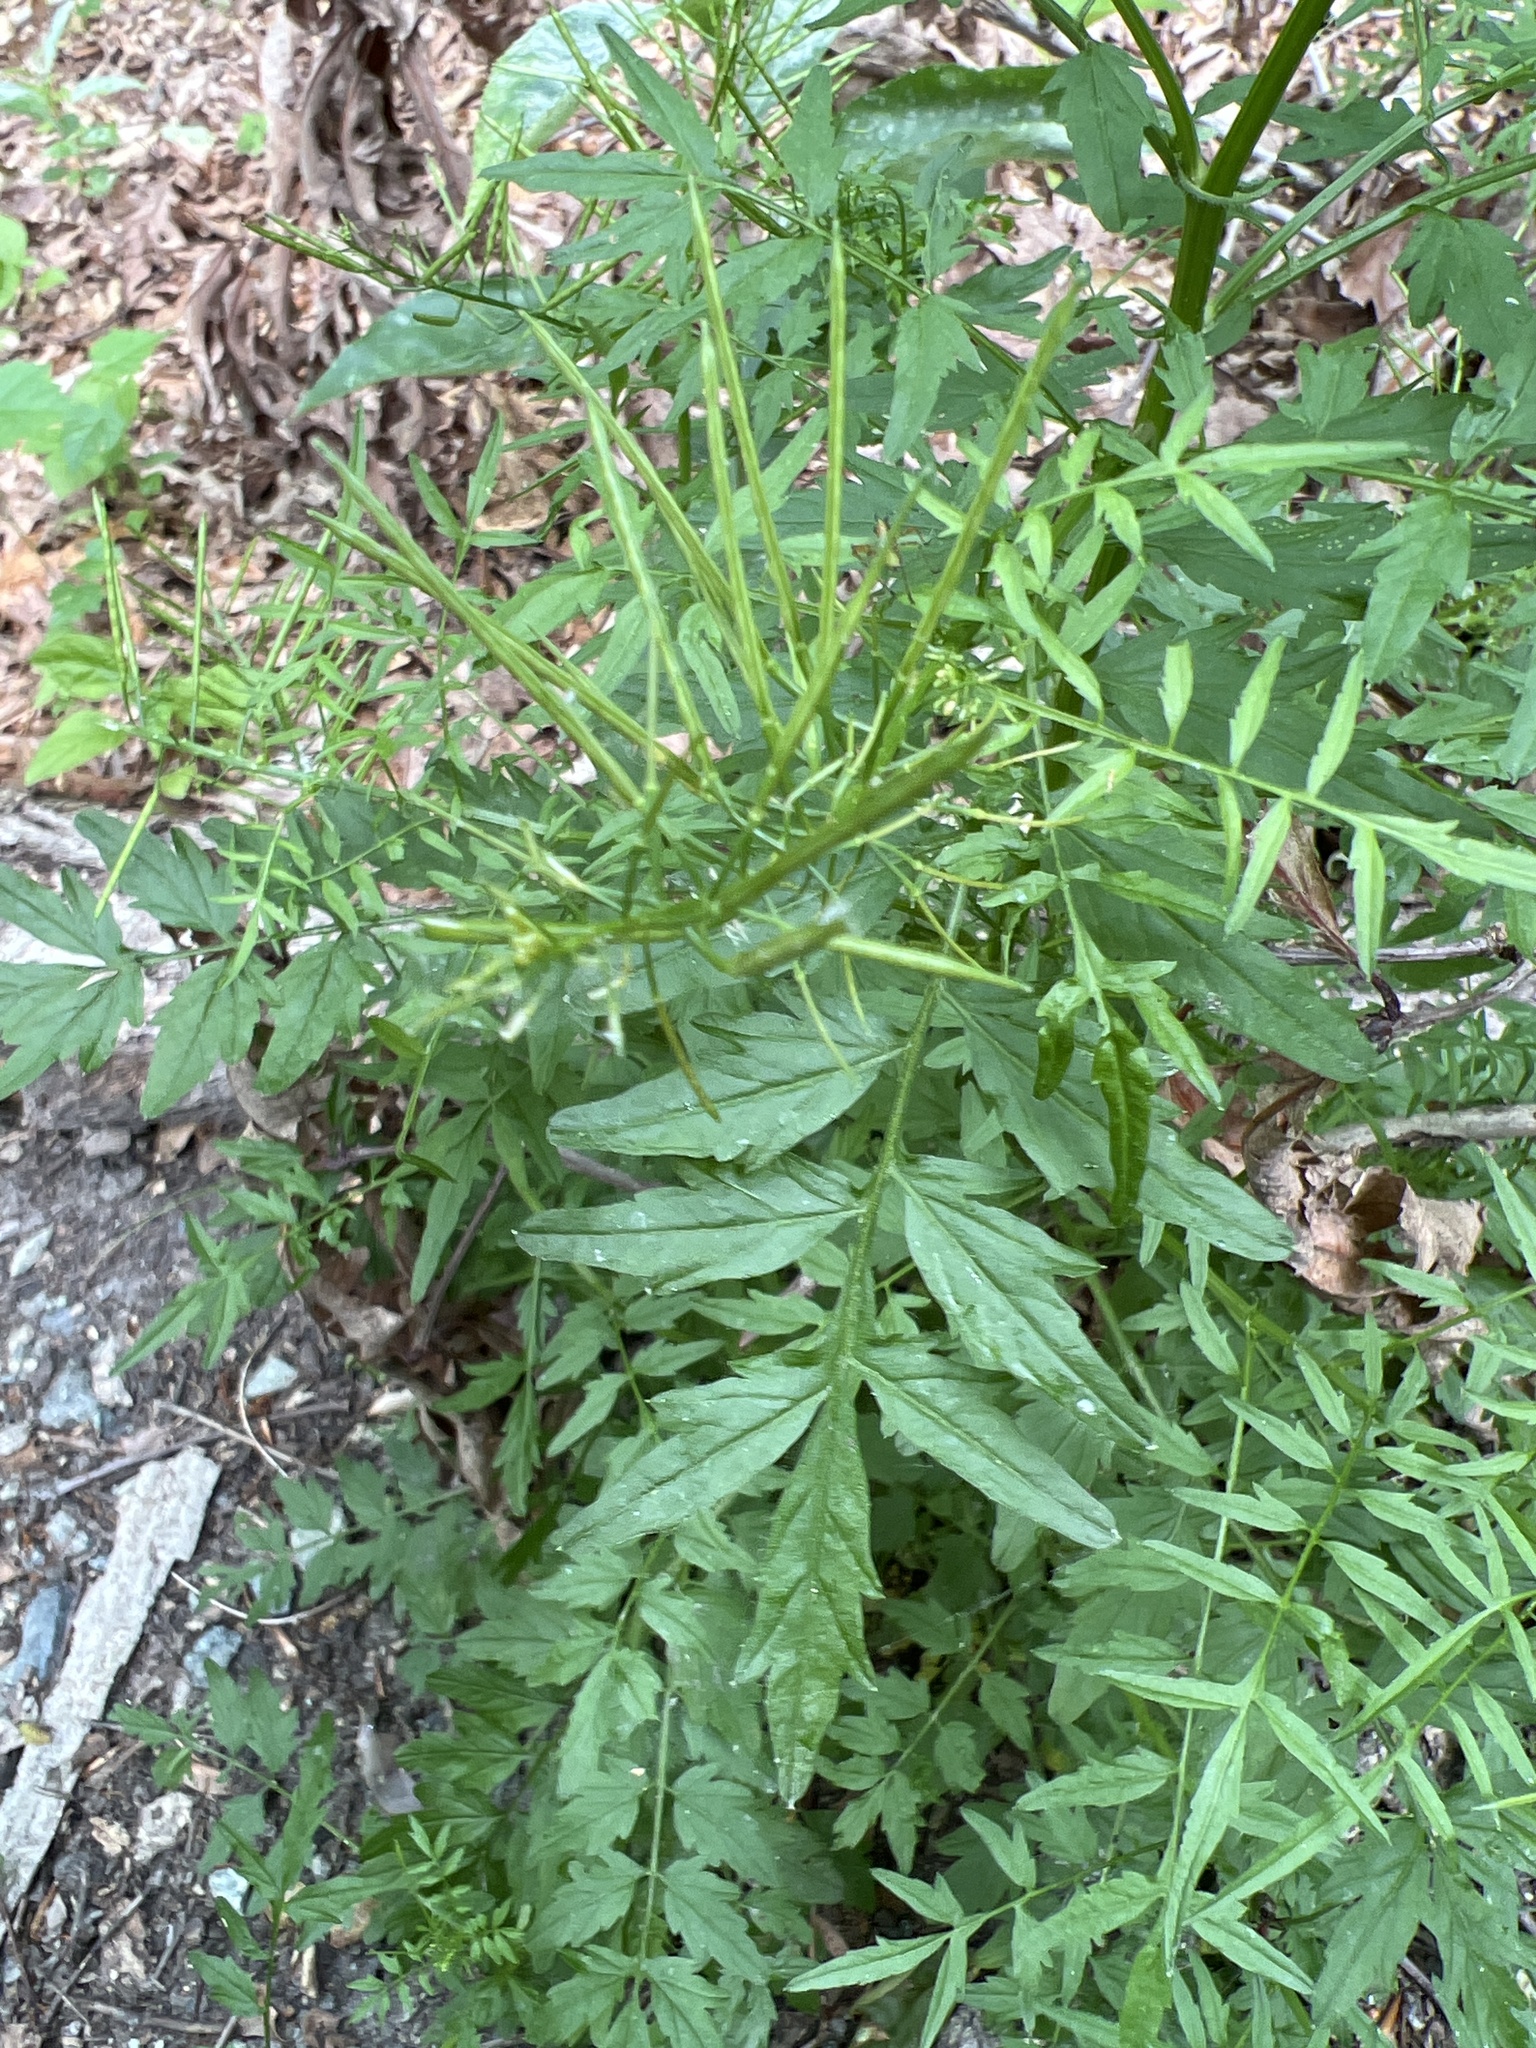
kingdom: Plantae
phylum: Tracheophyta
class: Magnoliopsida
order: Brassicales
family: Brassicaceae
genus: Cardamine
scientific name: Cardamine impatiens
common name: Narrow-leaved bitter-cress
